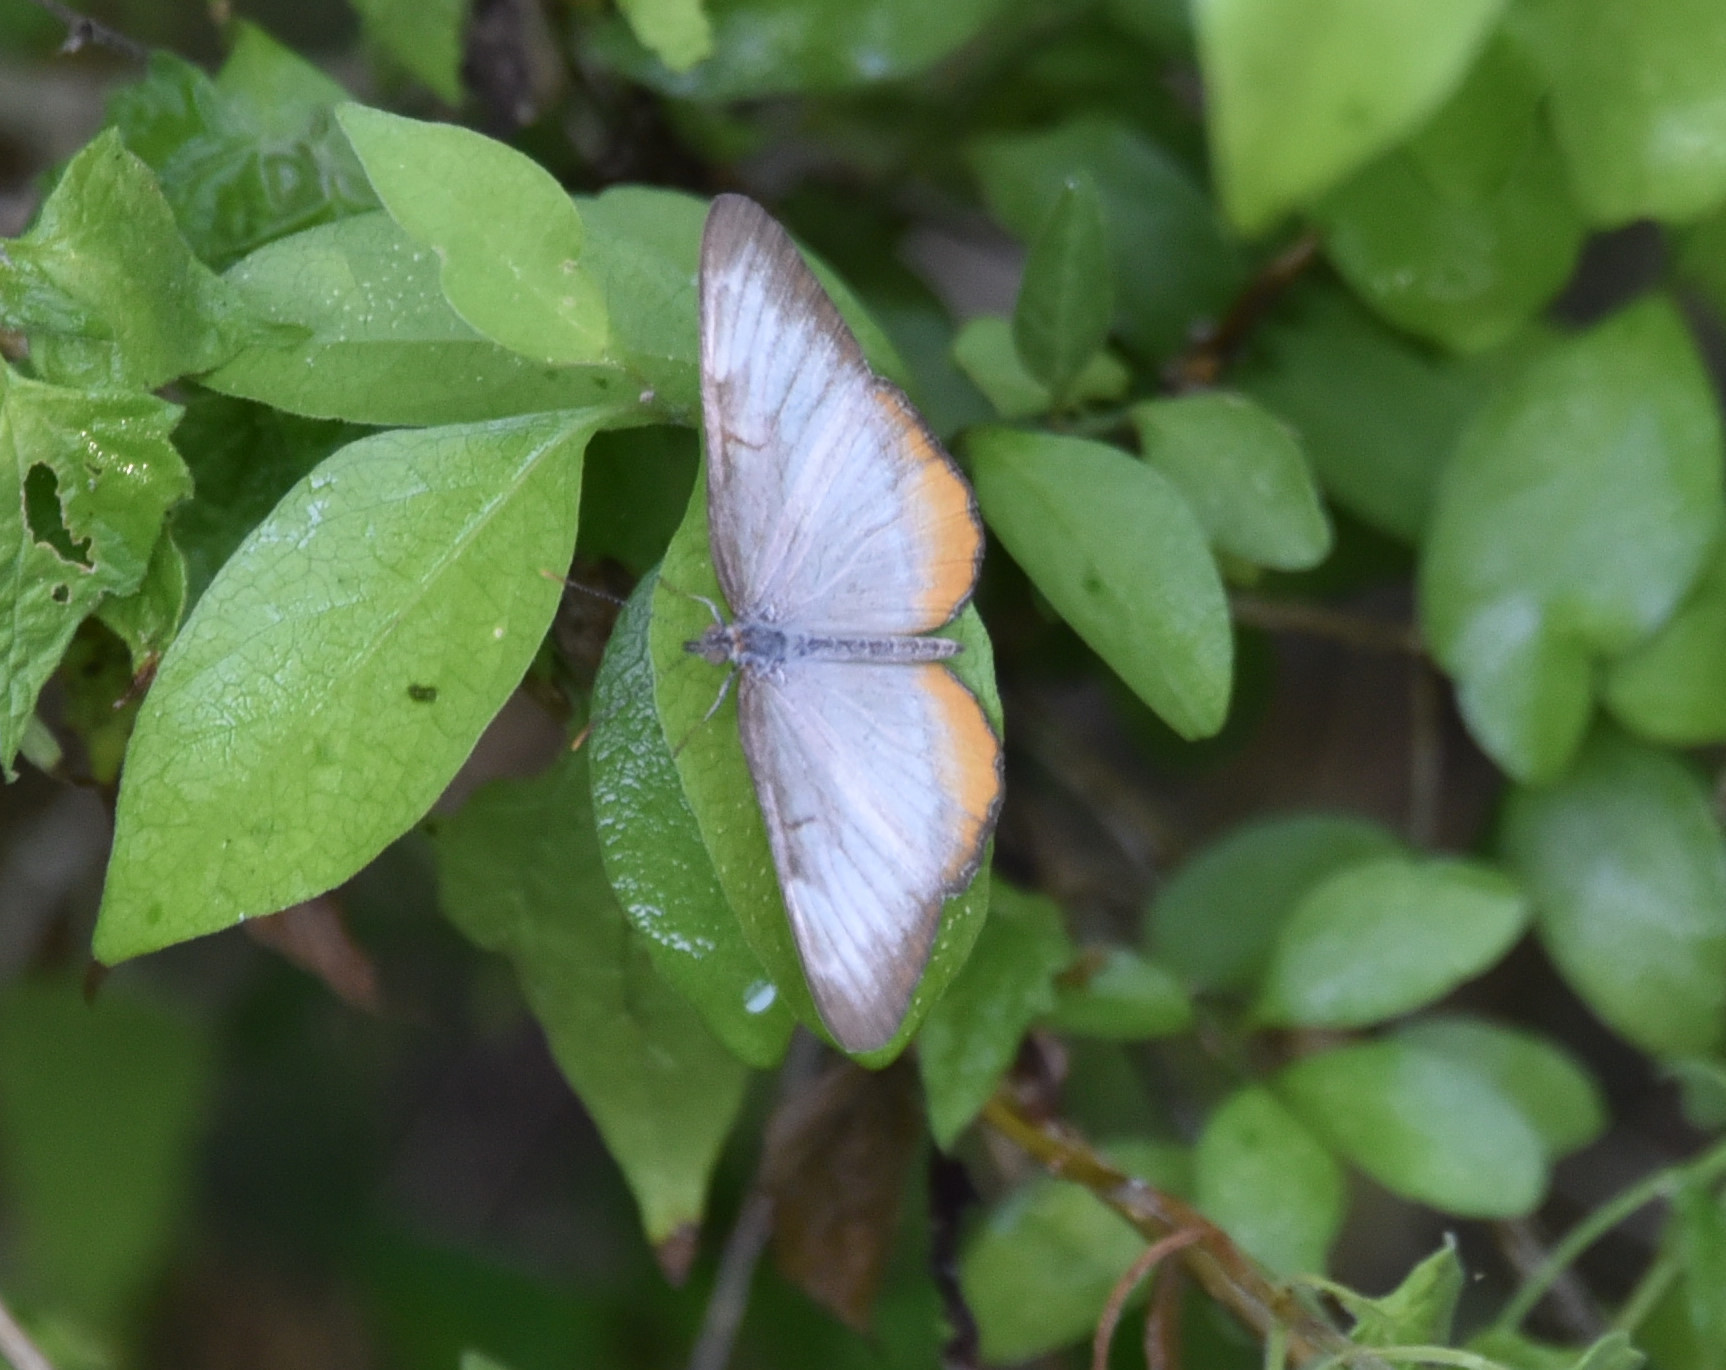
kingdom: Animalia
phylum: Arthropoda
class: Insecta
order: Lepidoptera
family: Nymphalidae
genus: Mestra
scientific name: Mestra amymone
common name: Common mestra
